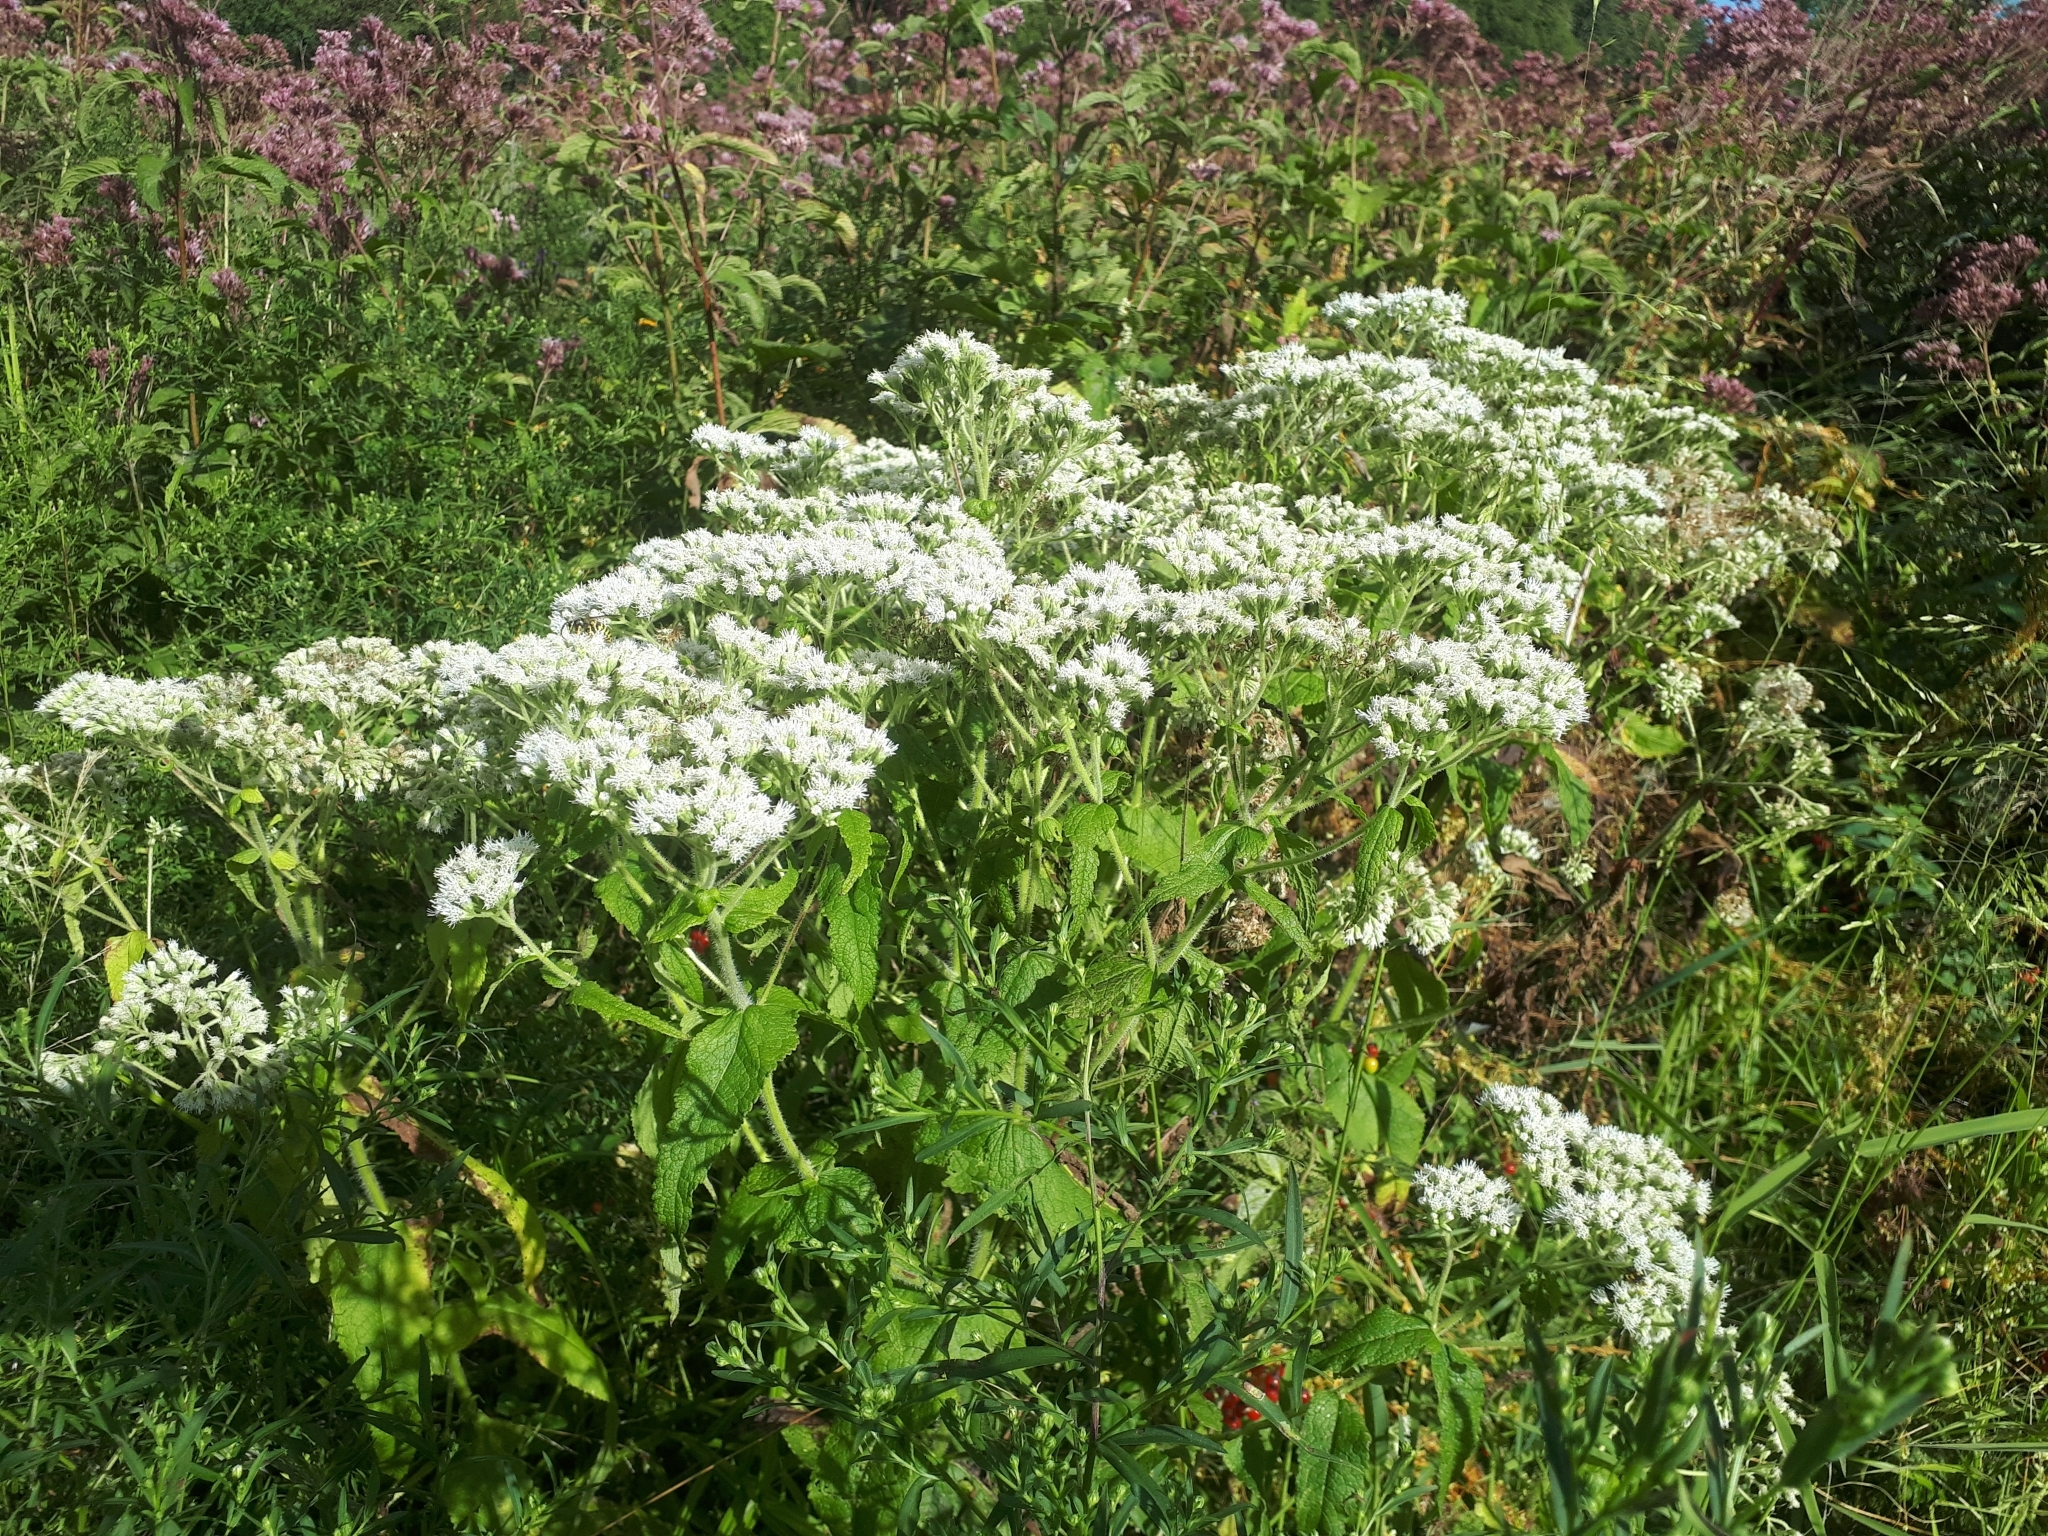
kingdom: Plantae
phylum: Tracheophyta
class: Magnoliopsida
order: Asterales
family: Asteraceae
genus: Eupatorium
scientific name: Eupatorium perfoliatum
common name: Boneset
